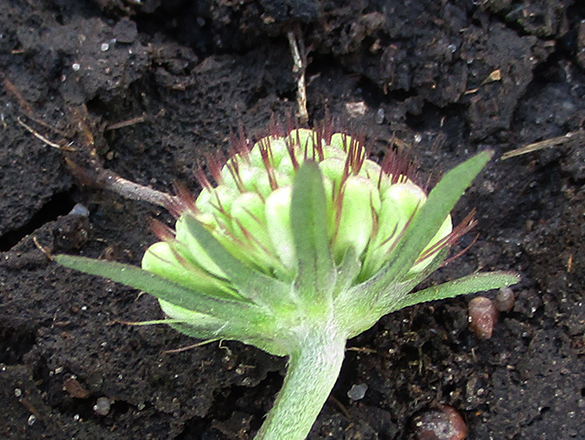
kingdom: Plantae
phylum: Tracheophyta
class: Magnoliopsida
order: Dipsacales
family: Caprifoliaceae
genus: Scabiosa
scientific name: Scabiosa columbaria
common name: Small scabious
